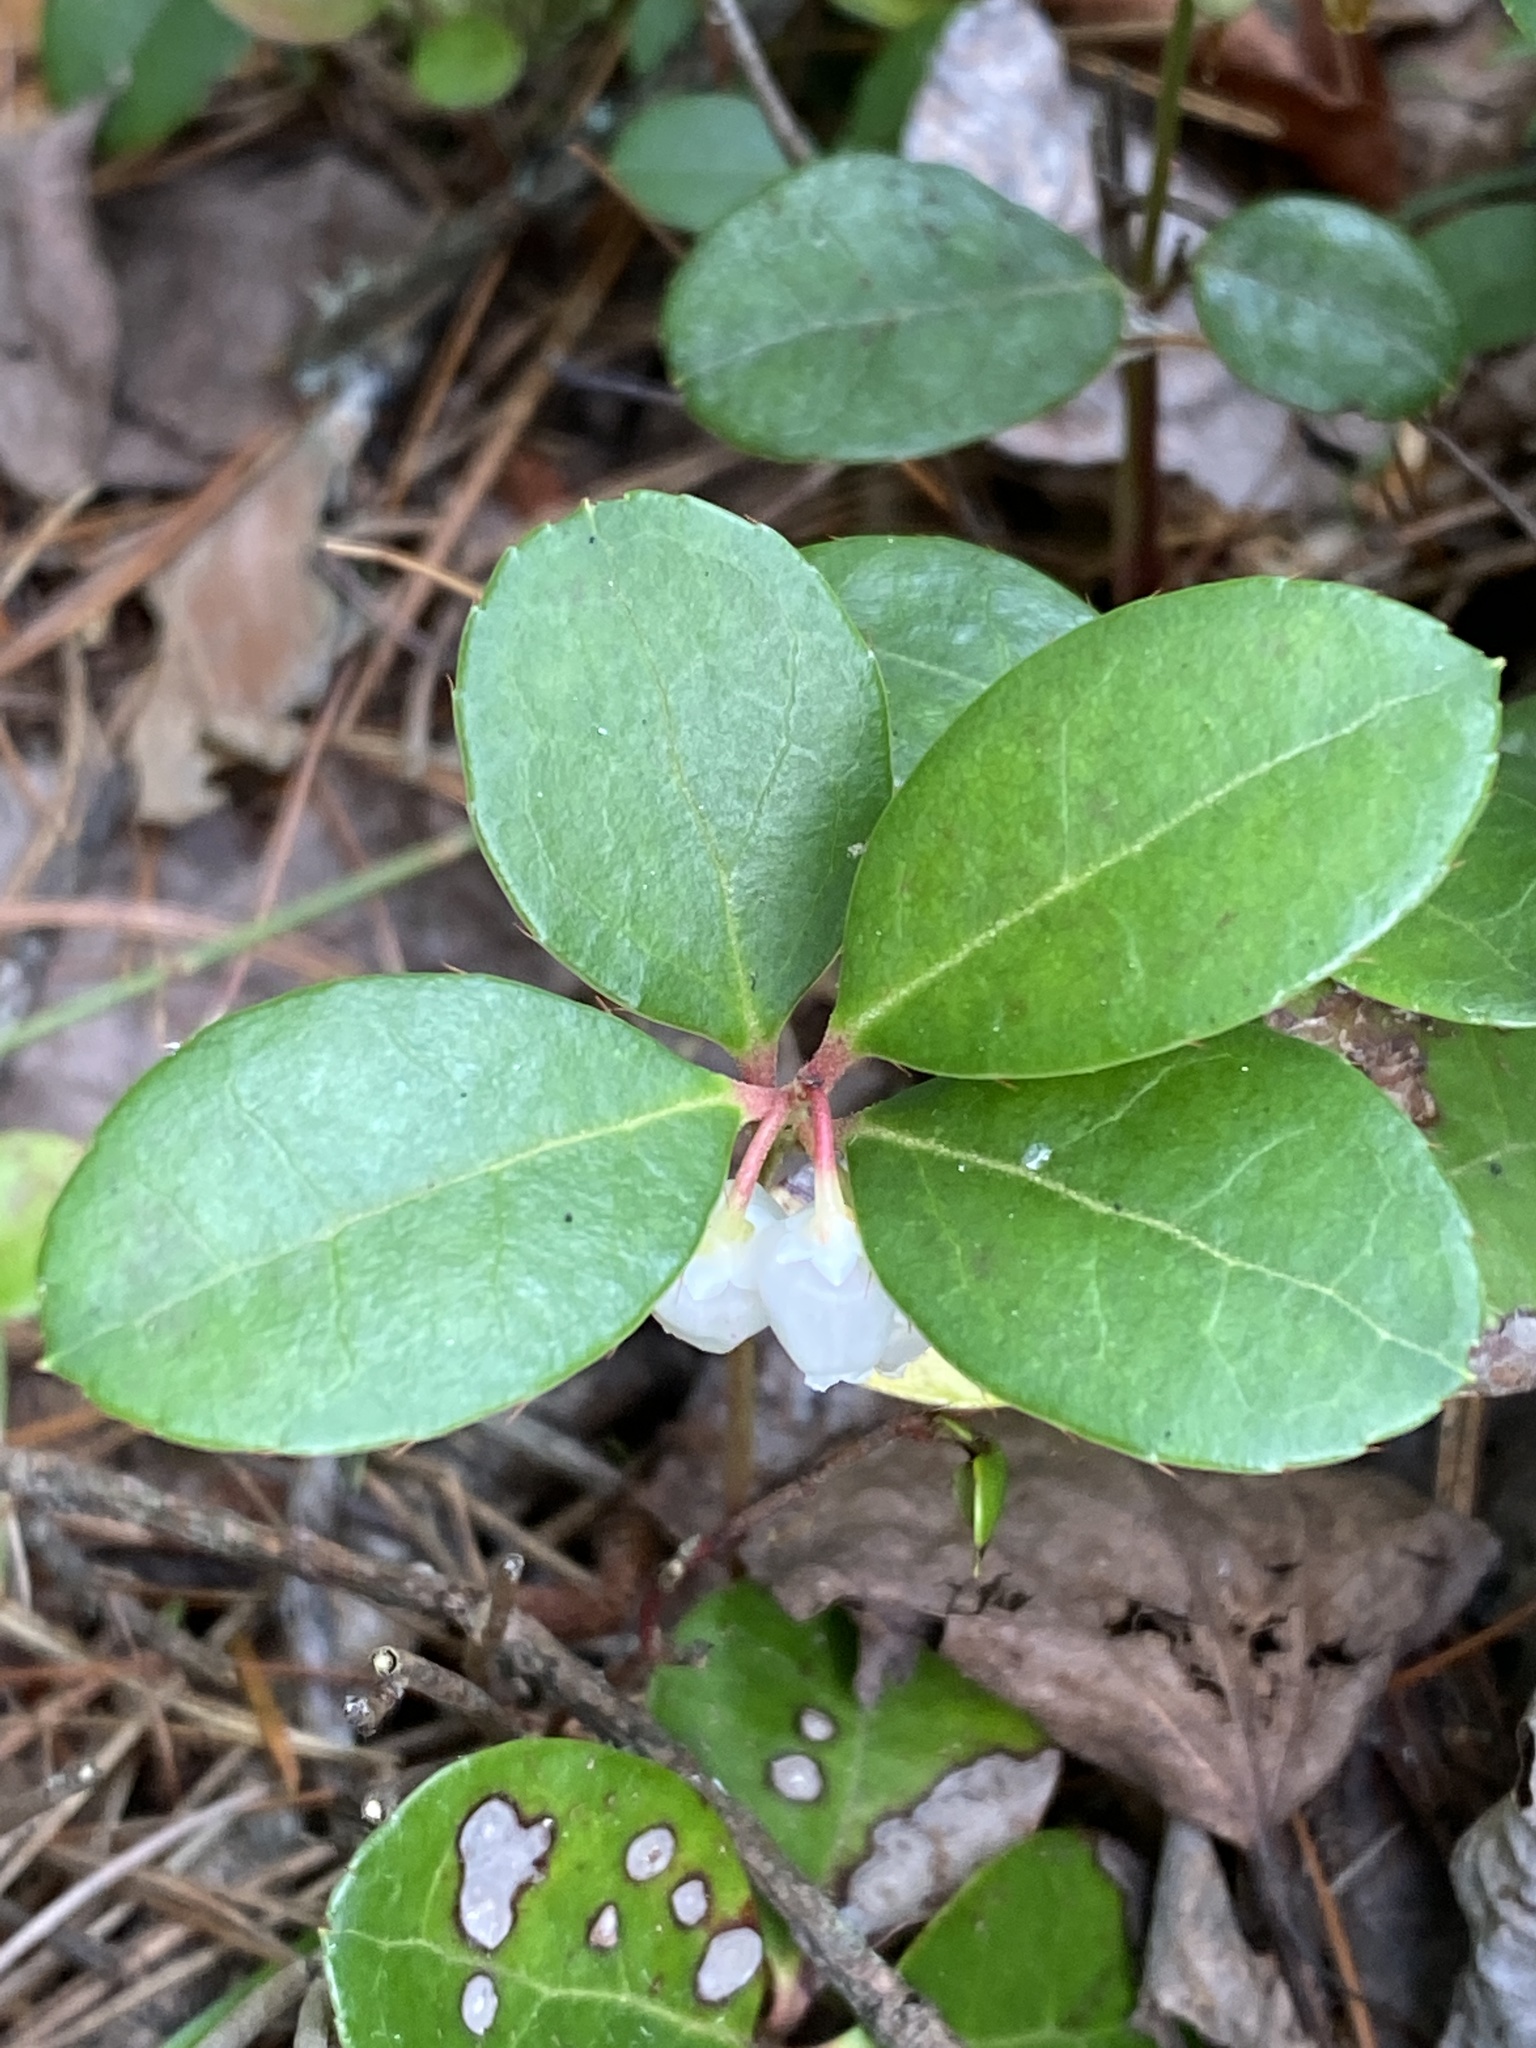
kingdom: Plantae
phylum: Tracheophyta
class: Magnoliopsida
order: Ericales
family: Ericaceae
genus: Gaultheria
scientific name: Gaultheria procumbens
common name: Checkerberry
